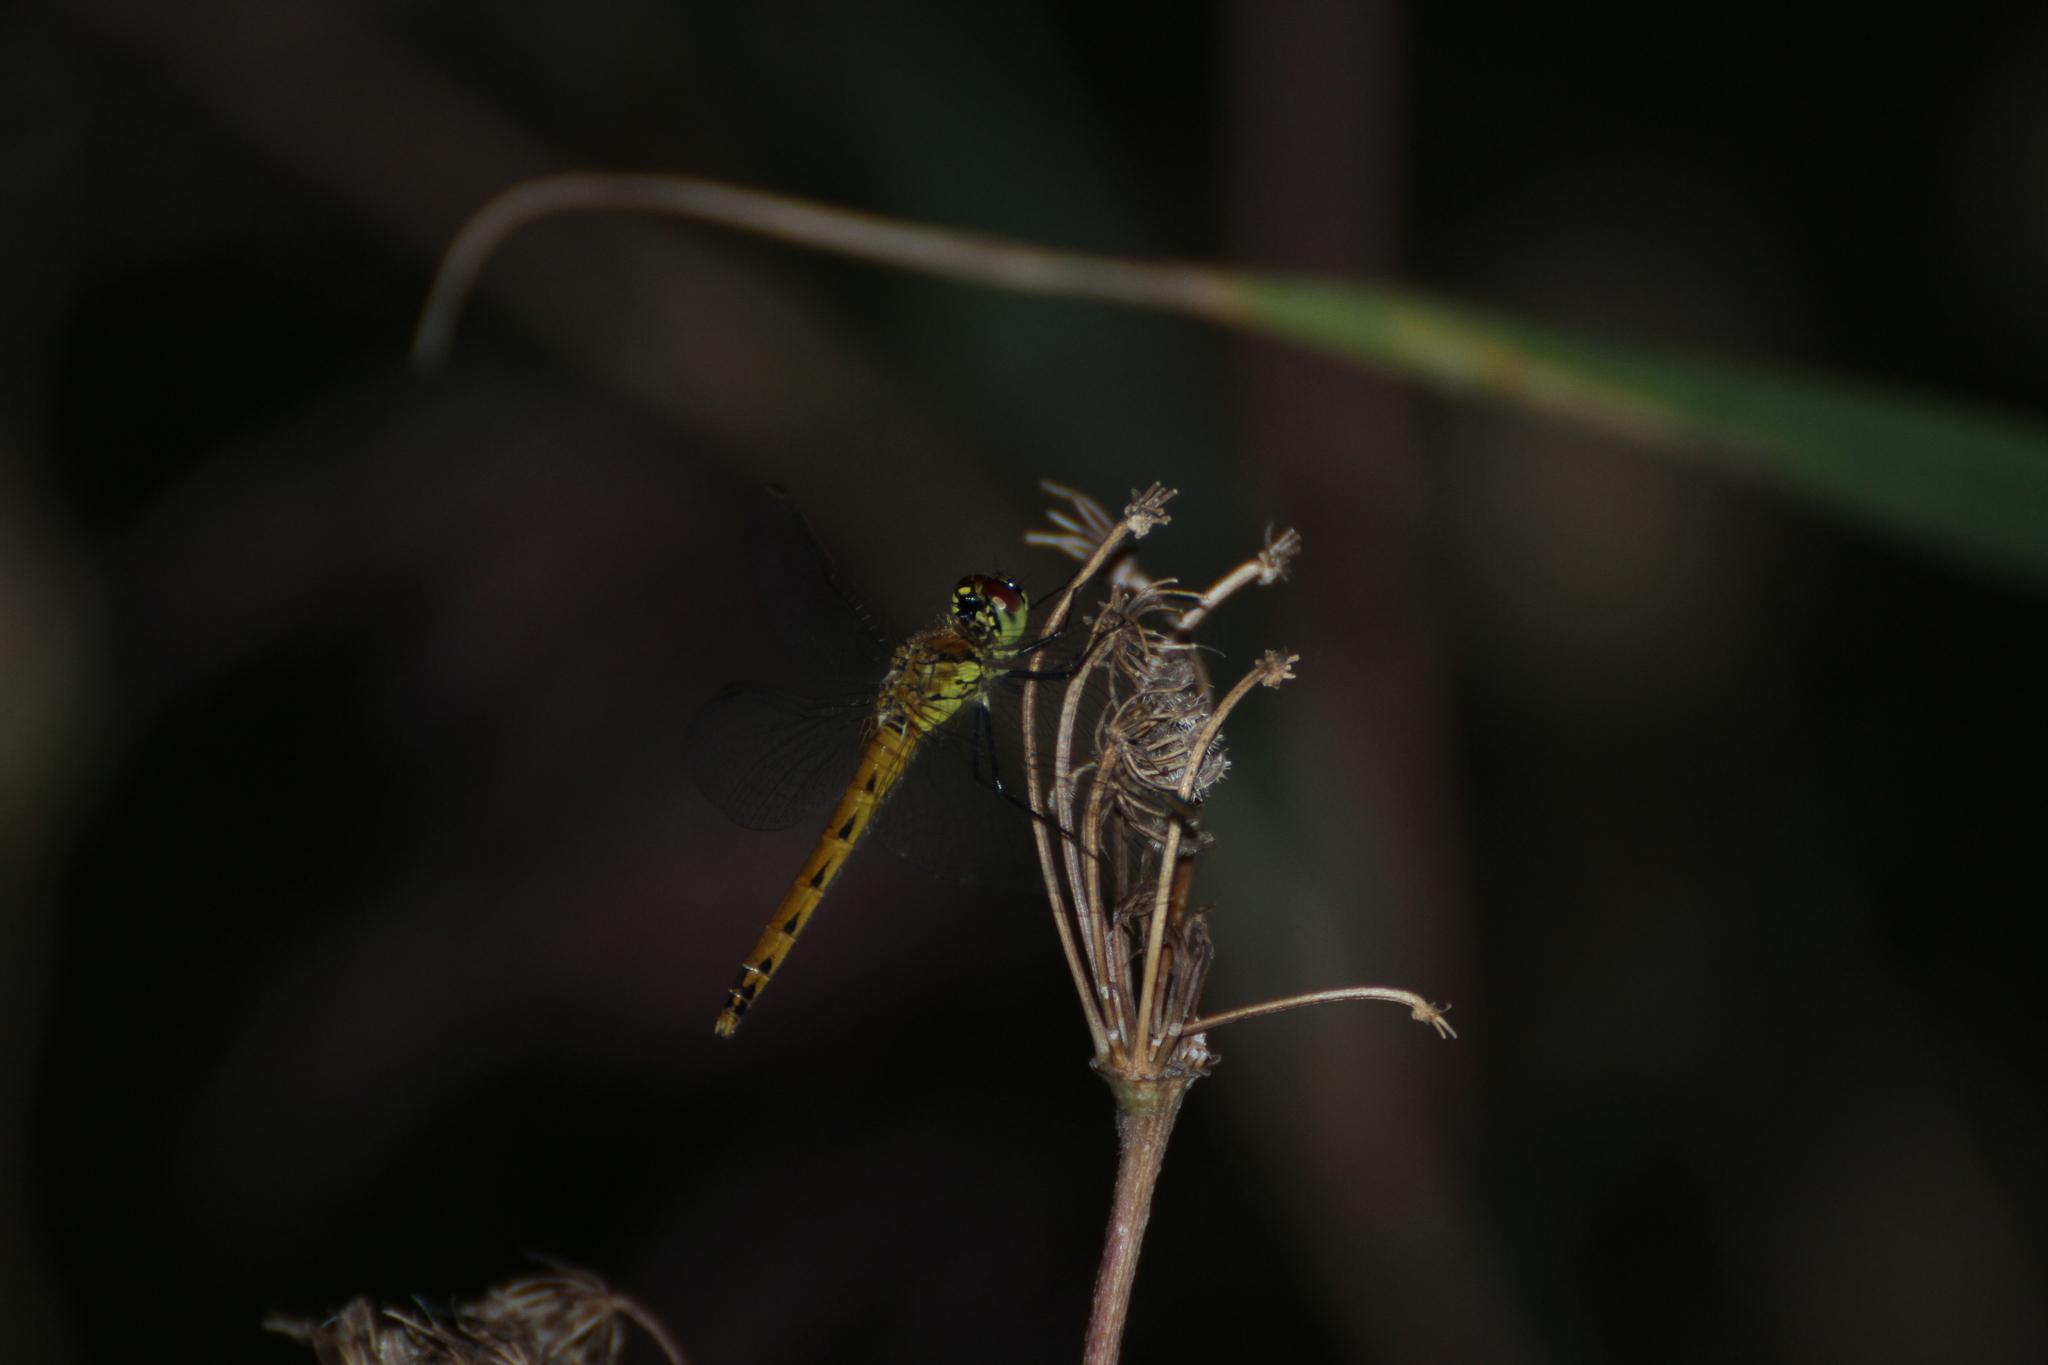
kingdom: Animalia
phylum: Arthropoda
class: Insecta
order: Odonata
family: Libellulidae
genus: Sympetrum
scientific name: Sympetrum depressiusculum
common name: Spotted darter
